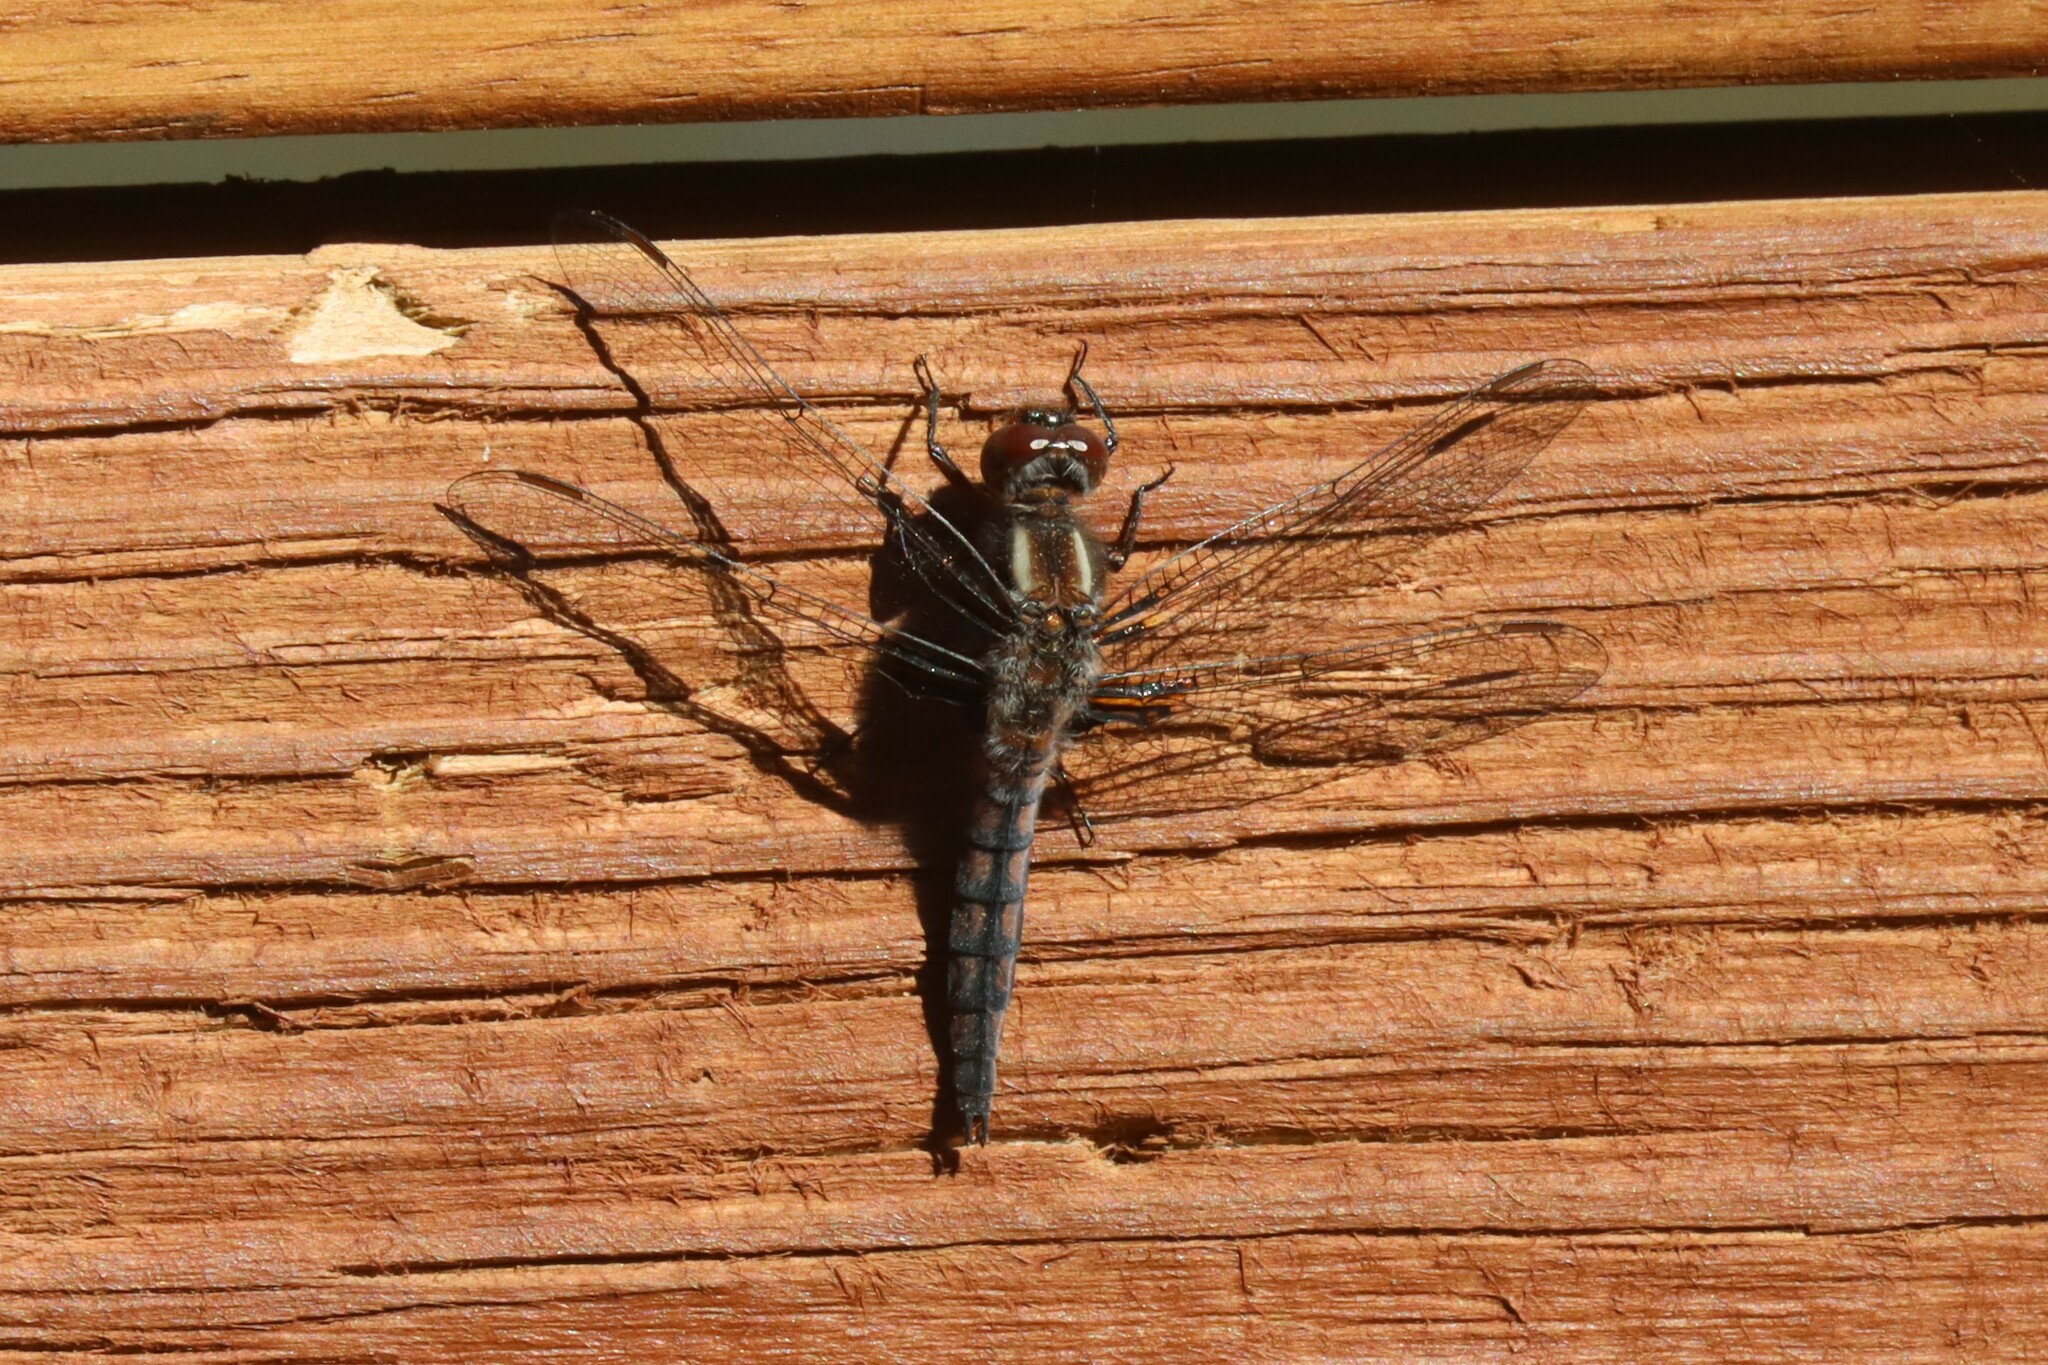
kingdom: Animalia
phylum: Arthropoda
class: Insecta
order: Odonata
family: Libellulidae
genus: Ladona
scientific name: Ladona deplanata
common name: Blue corporal
